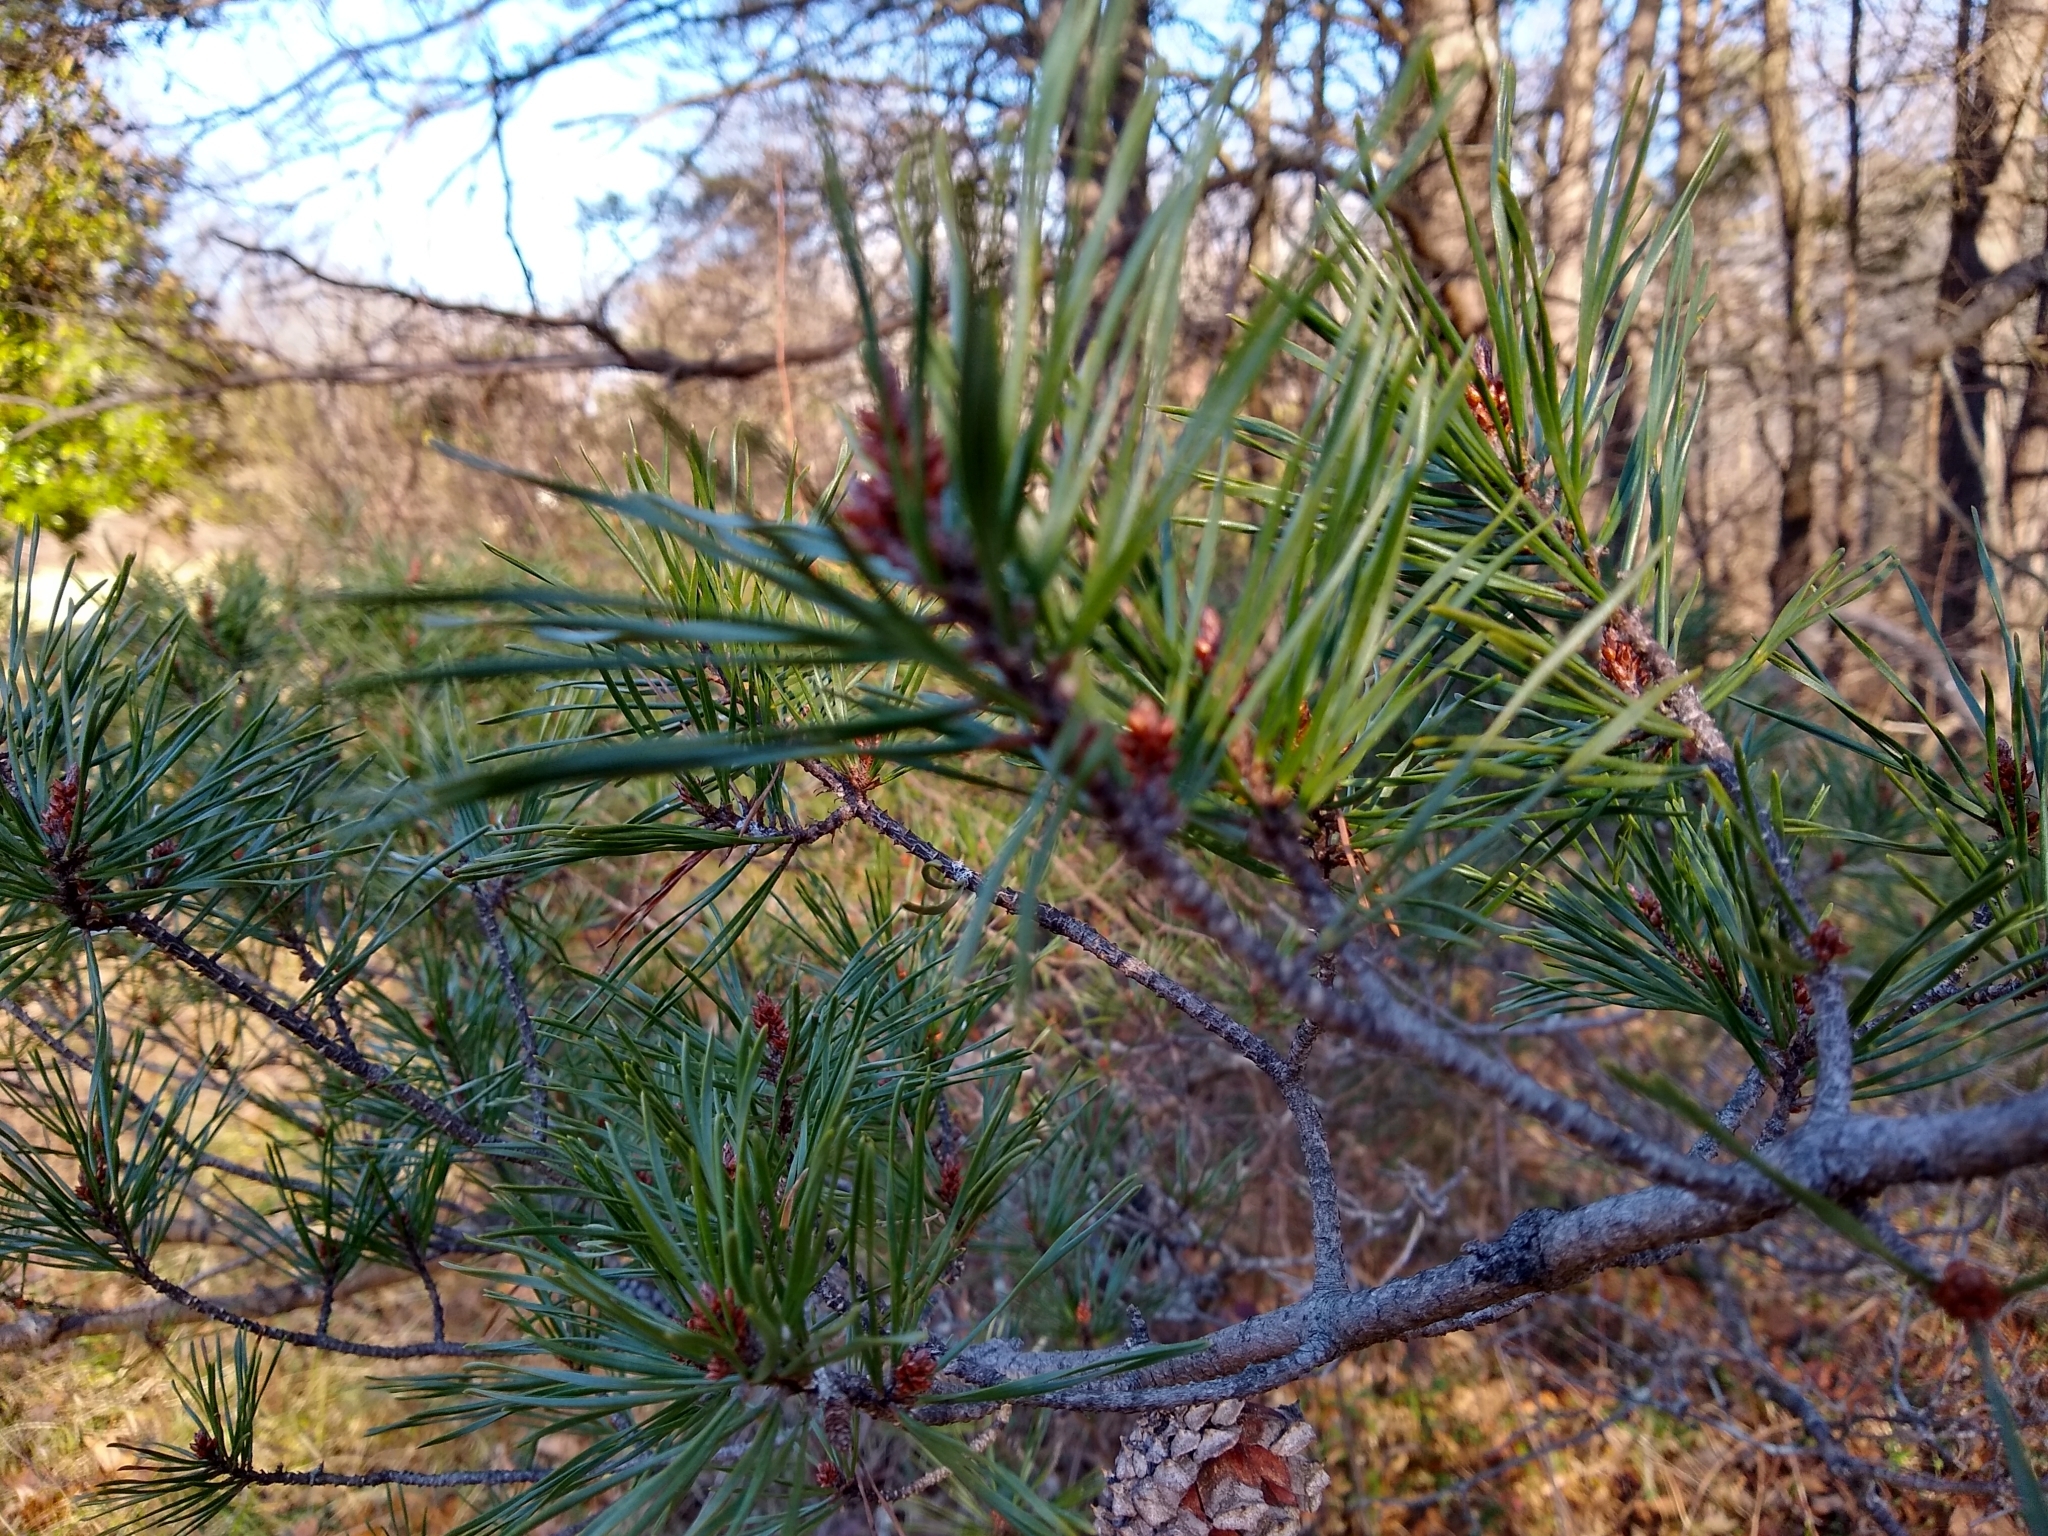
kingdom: Plantae
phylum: Tracheophyta
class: Pinopsida
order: Pinales
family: Pinaceae
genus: Pinus
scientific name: Pinus virginiana
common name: Scrub pine
